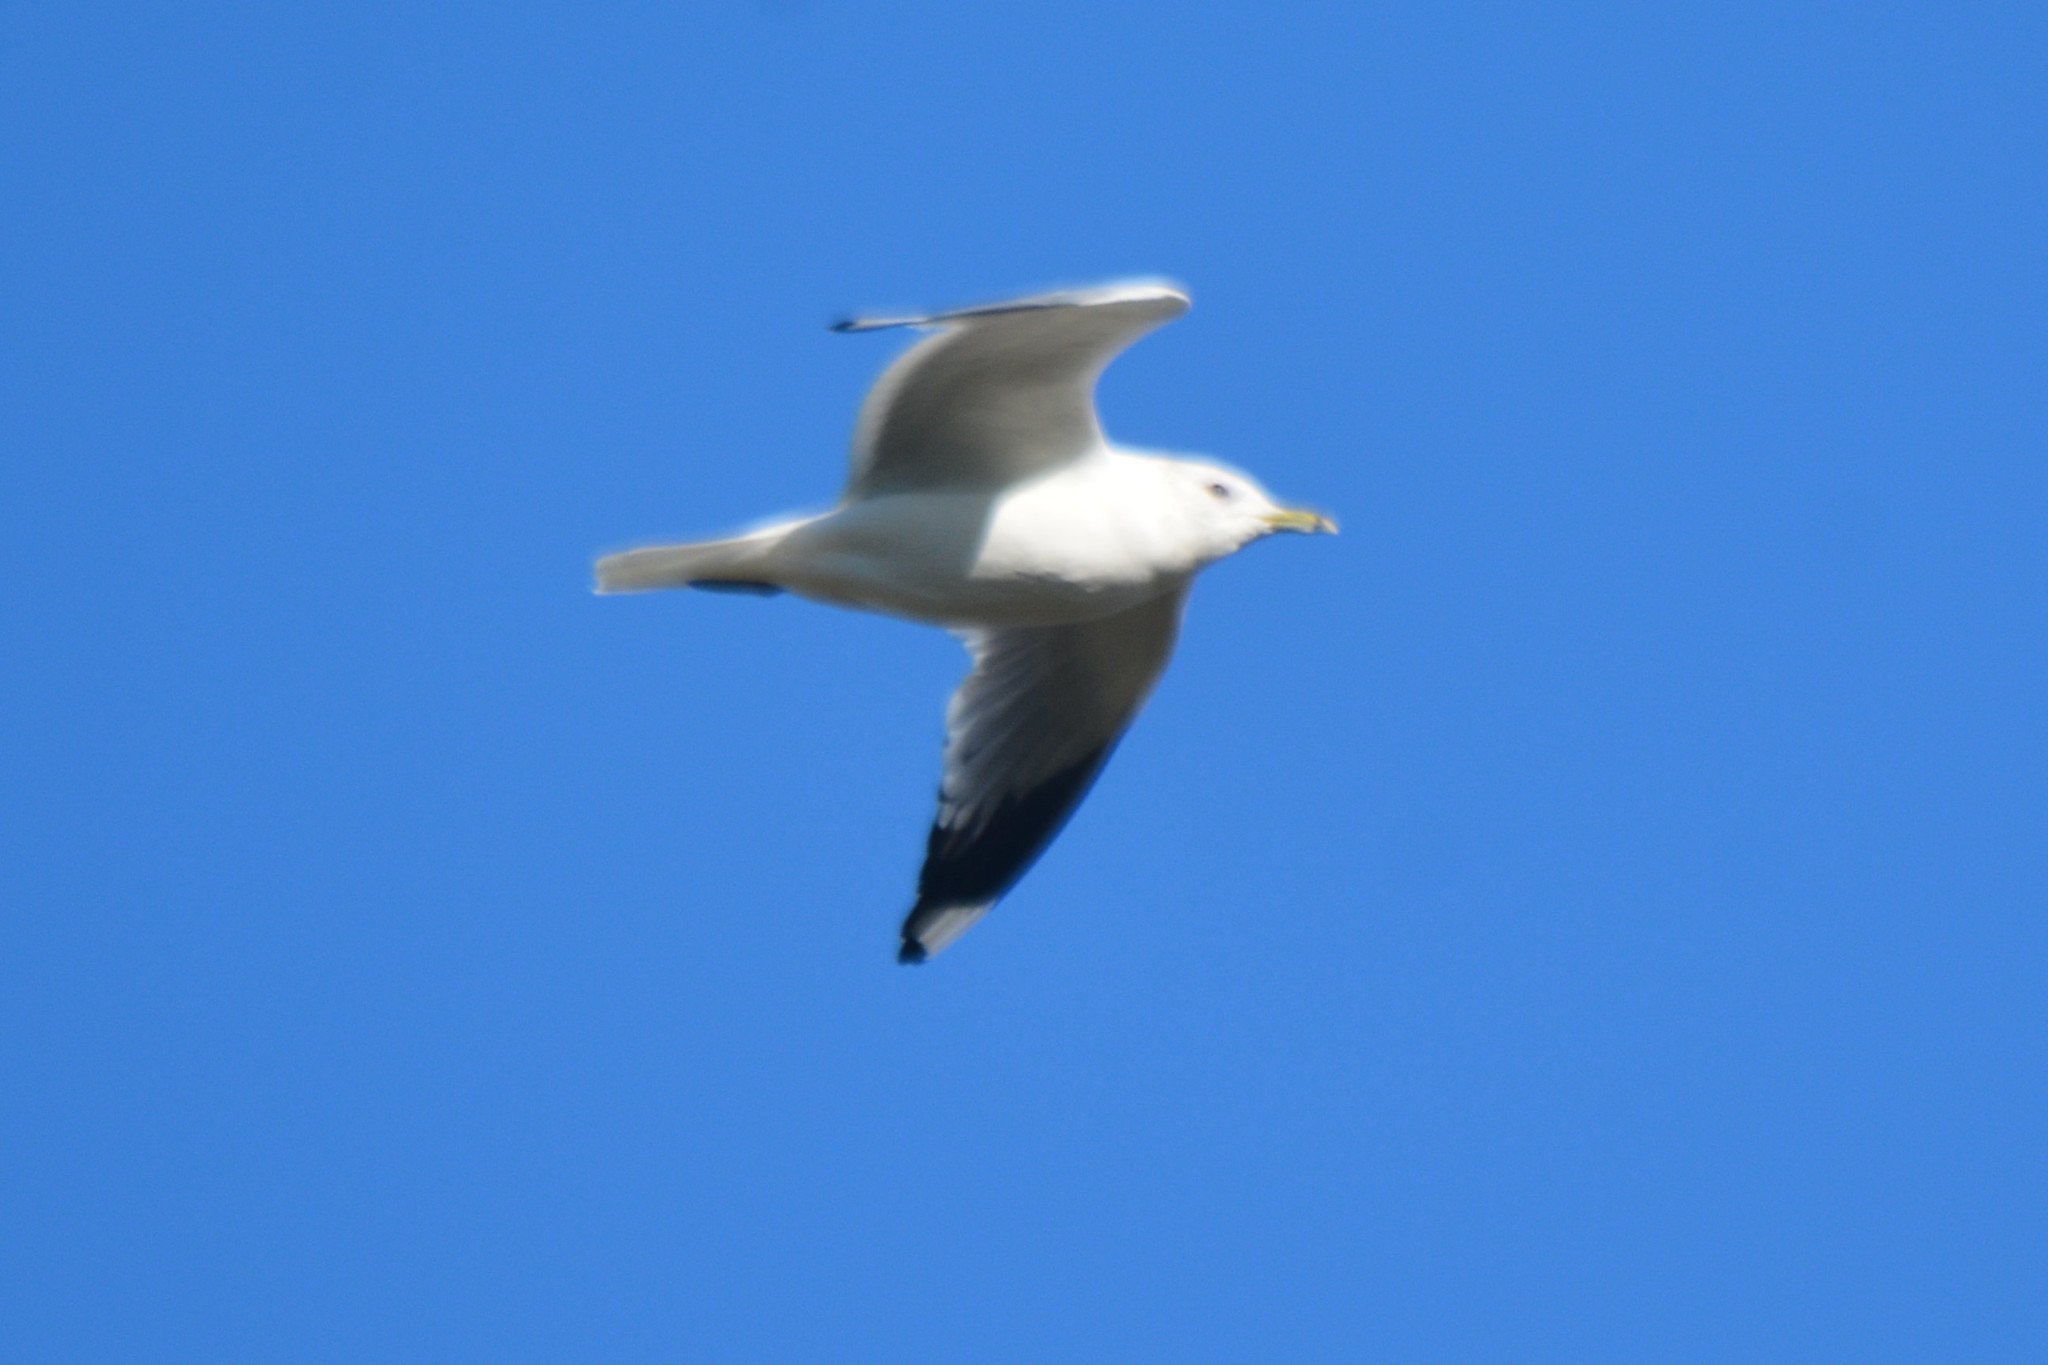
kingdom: Animalia
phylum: Chordata
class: Aves
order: Charadriiformes
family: Laridae
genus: Larus
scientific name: Larus canus
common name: Mew gull
